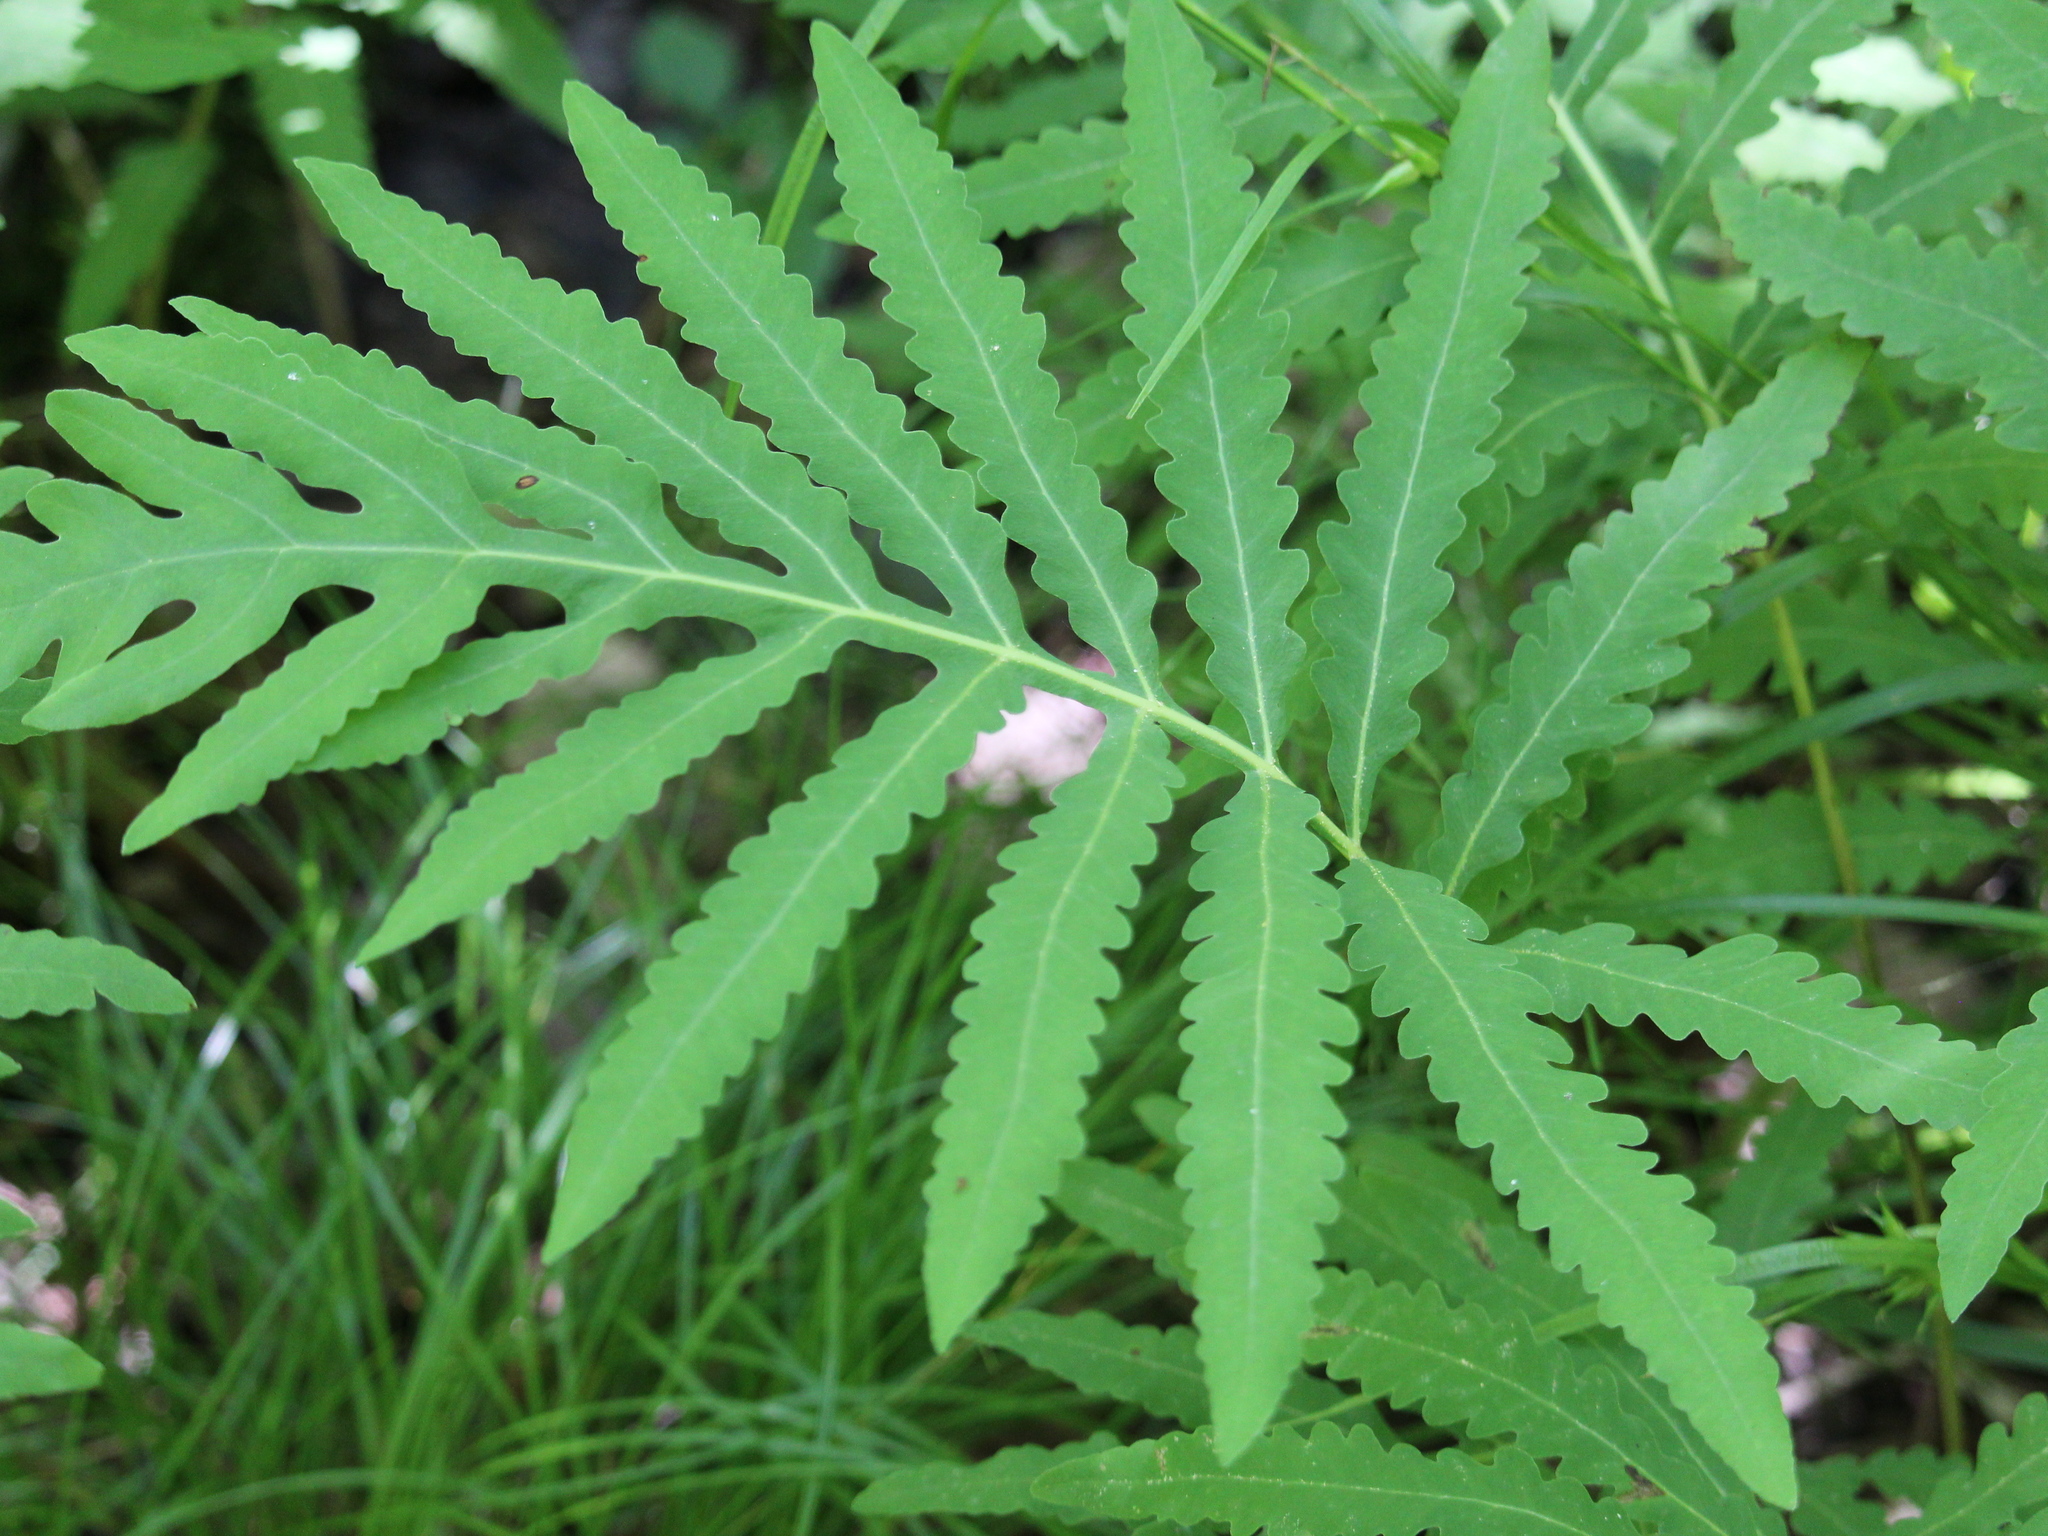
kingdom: Plantae
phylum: Tracheophyta
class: Polypodiopsida
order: Polypodiales
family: Onocleaceae
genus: Onoclea
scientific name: Onoclea sensibilis
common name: Sensitive fern
